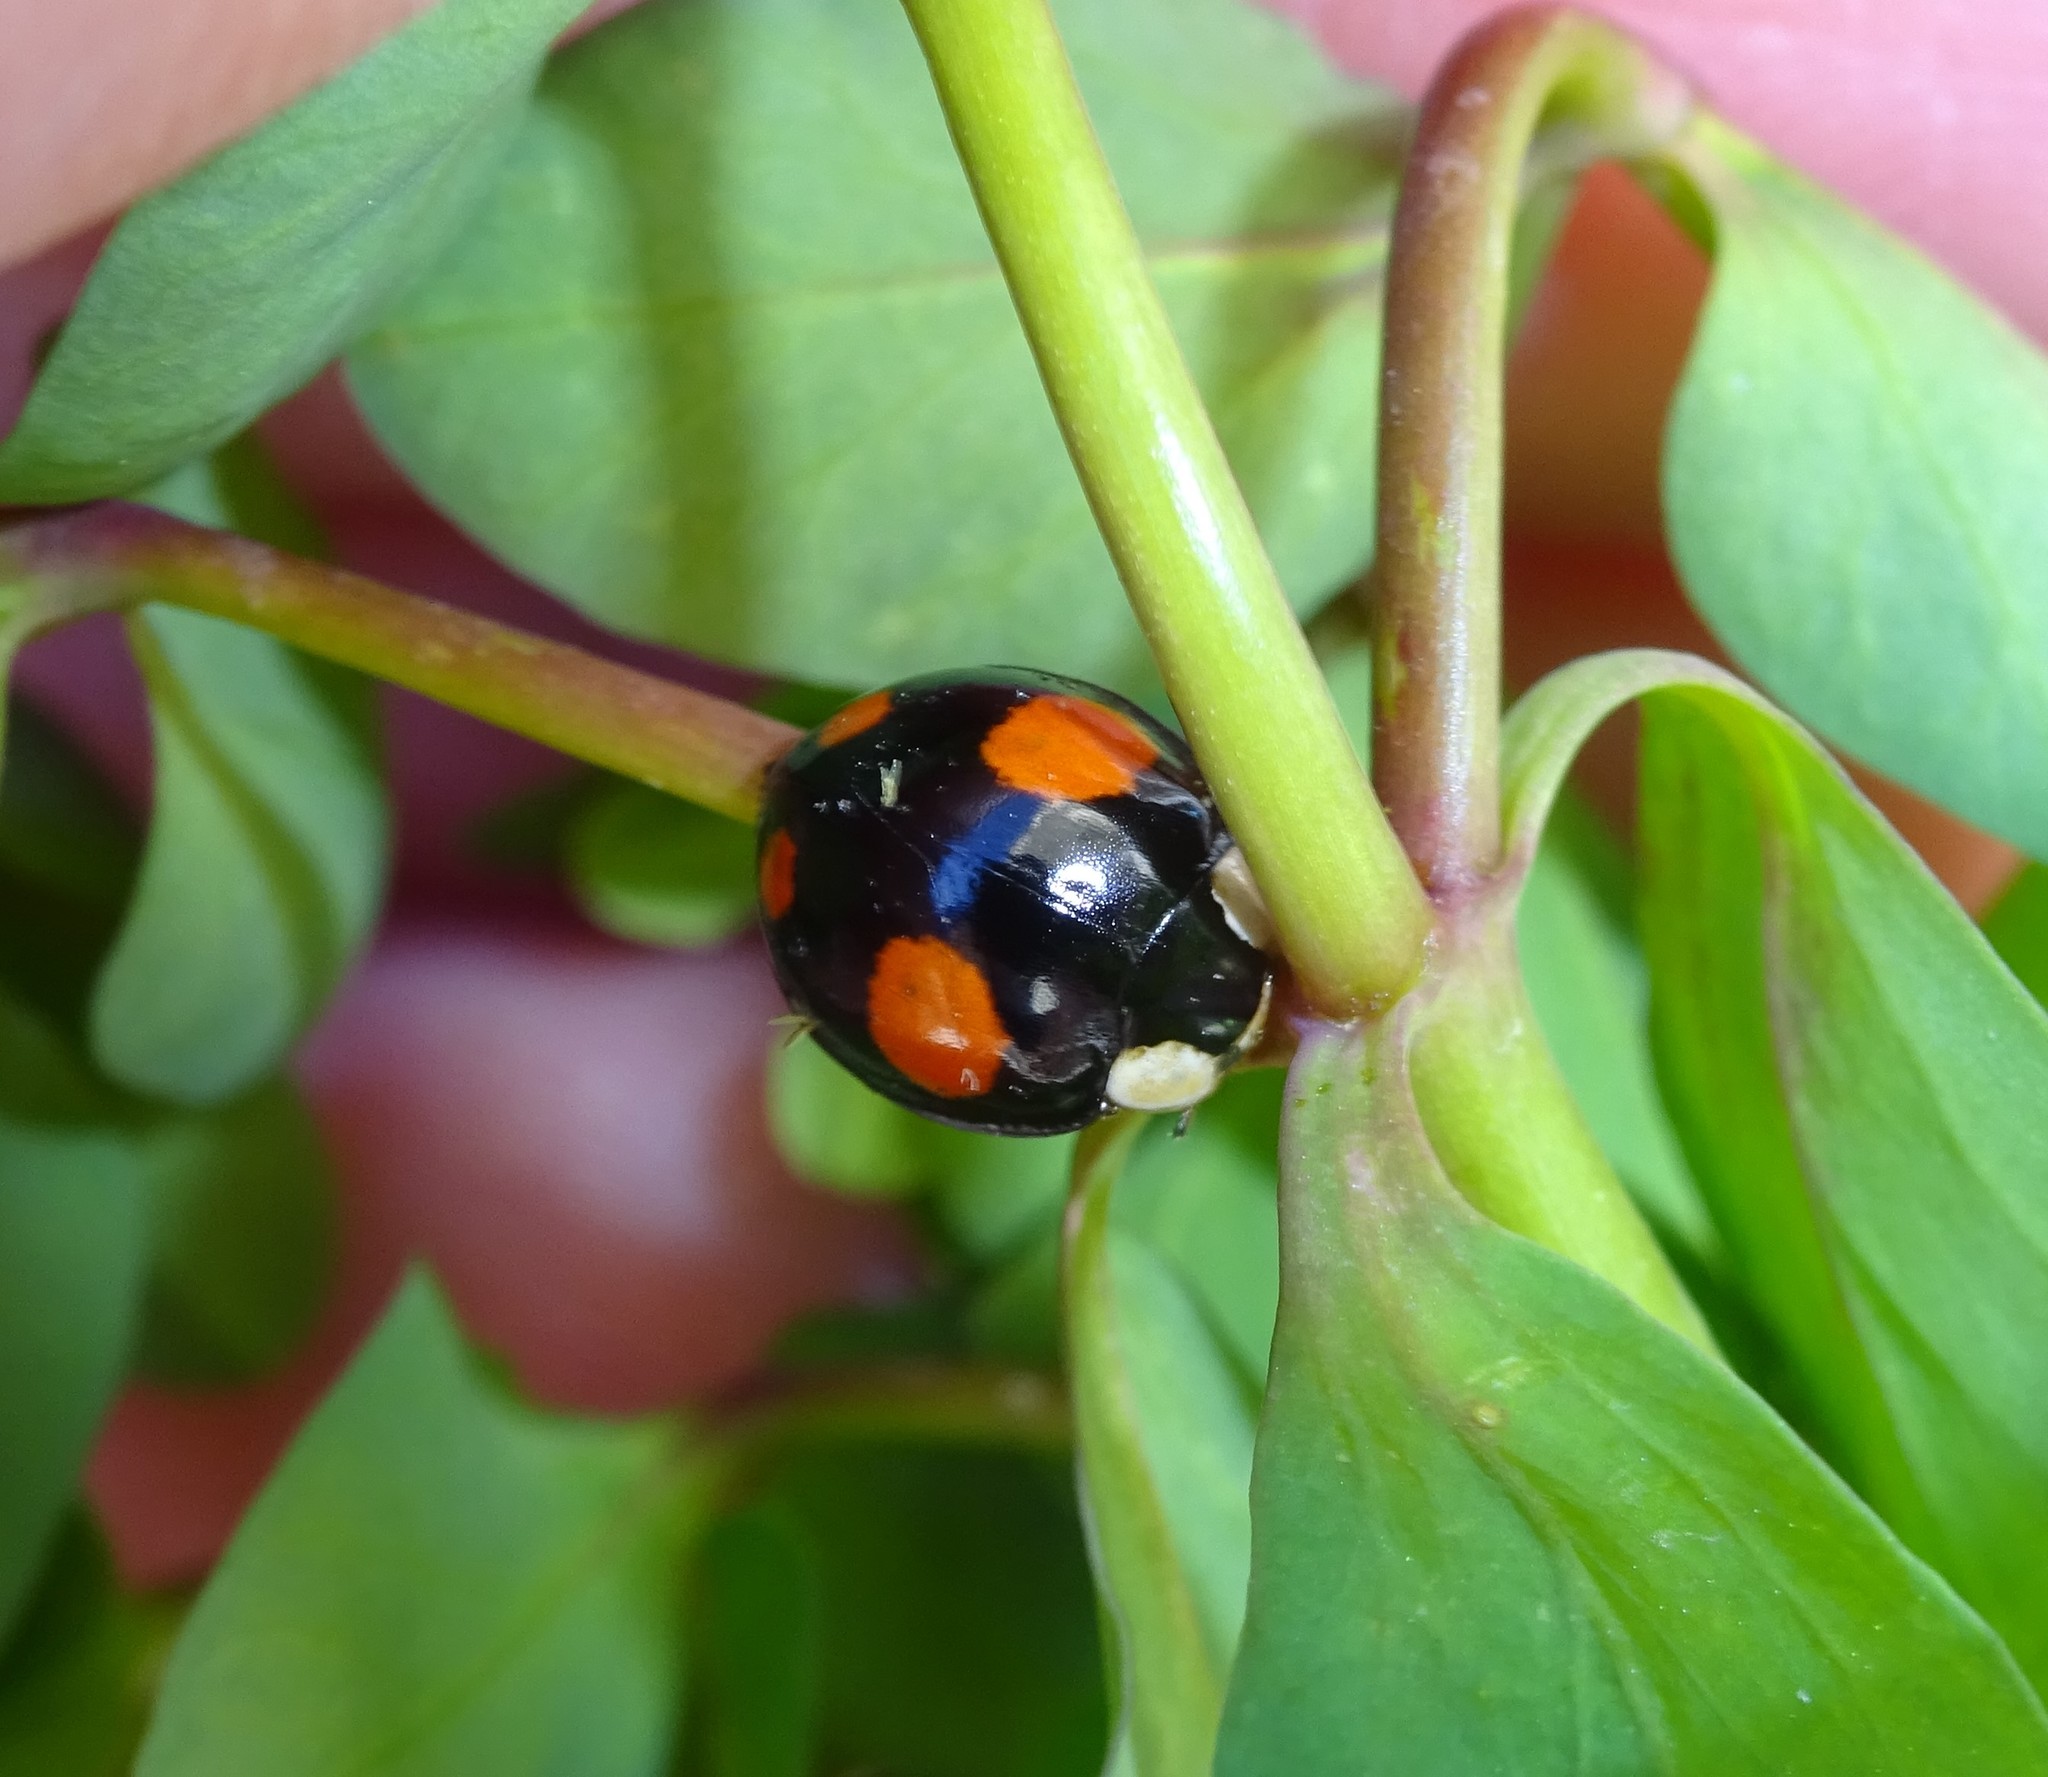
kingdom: Animalia
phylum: Arthropoda
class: Insecta
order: Coleoptera
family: Coccinellidae
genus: Harmonia
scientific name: Harmonia axyridis
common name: Harlequin ladybird
